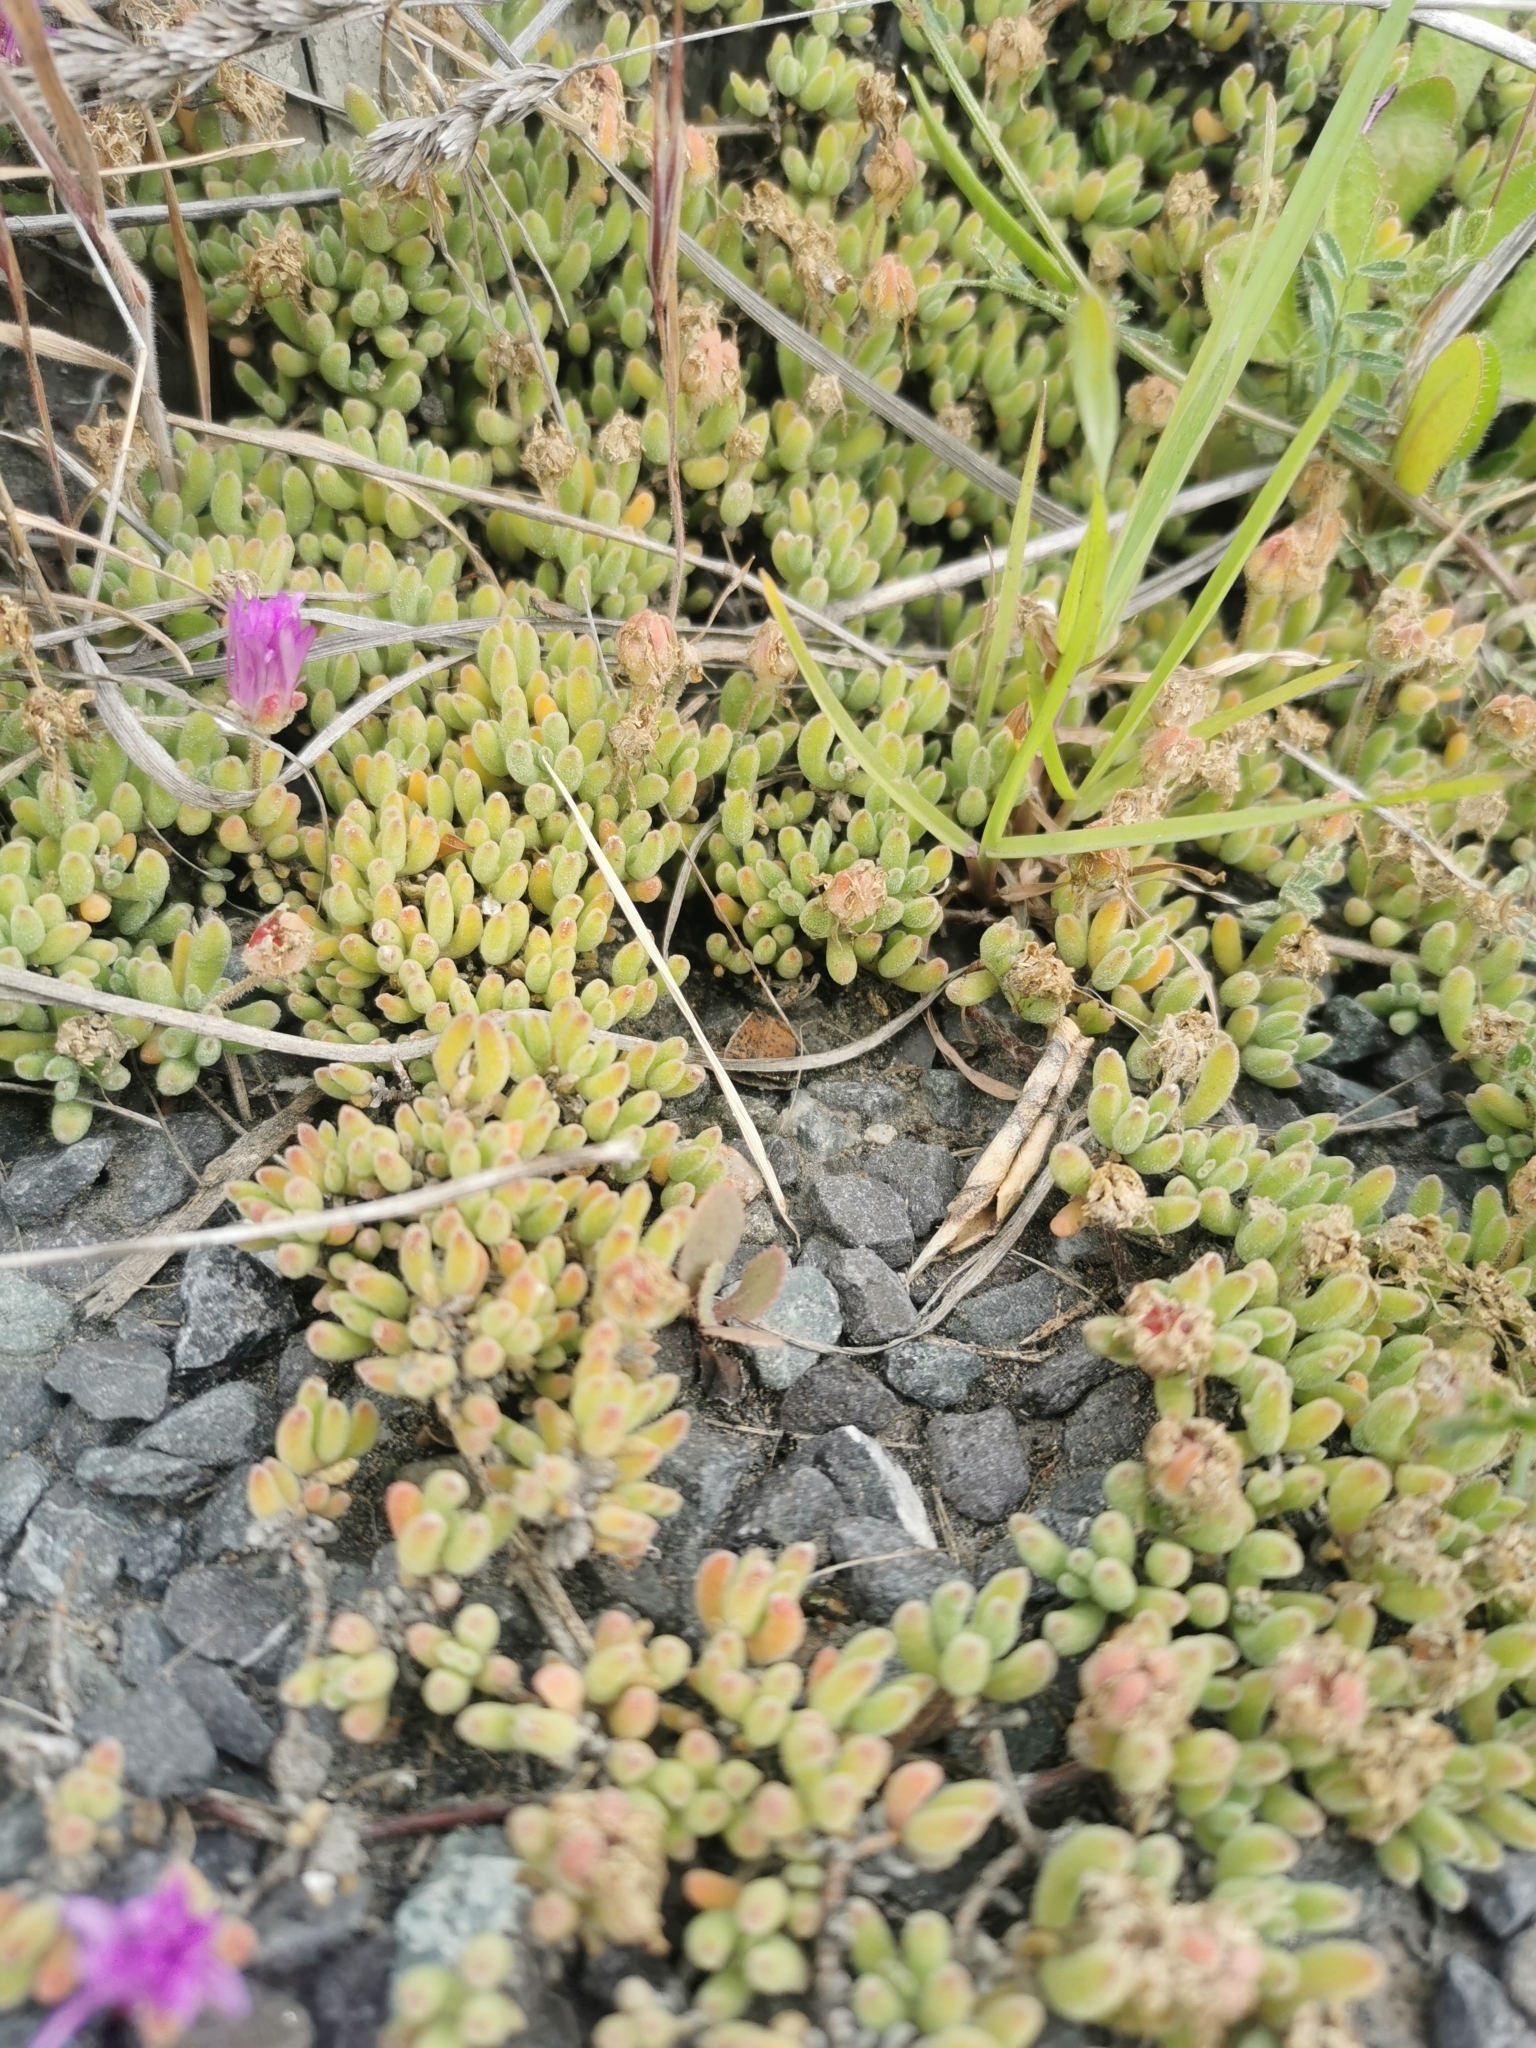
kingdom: Plantae
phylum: Tracheophyta
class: Magnoliopsida
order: Caryophyllales
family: Aizoaceae
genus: Drosanthemum
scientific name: Drosanthemum floribundum
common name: Pale dewplant
